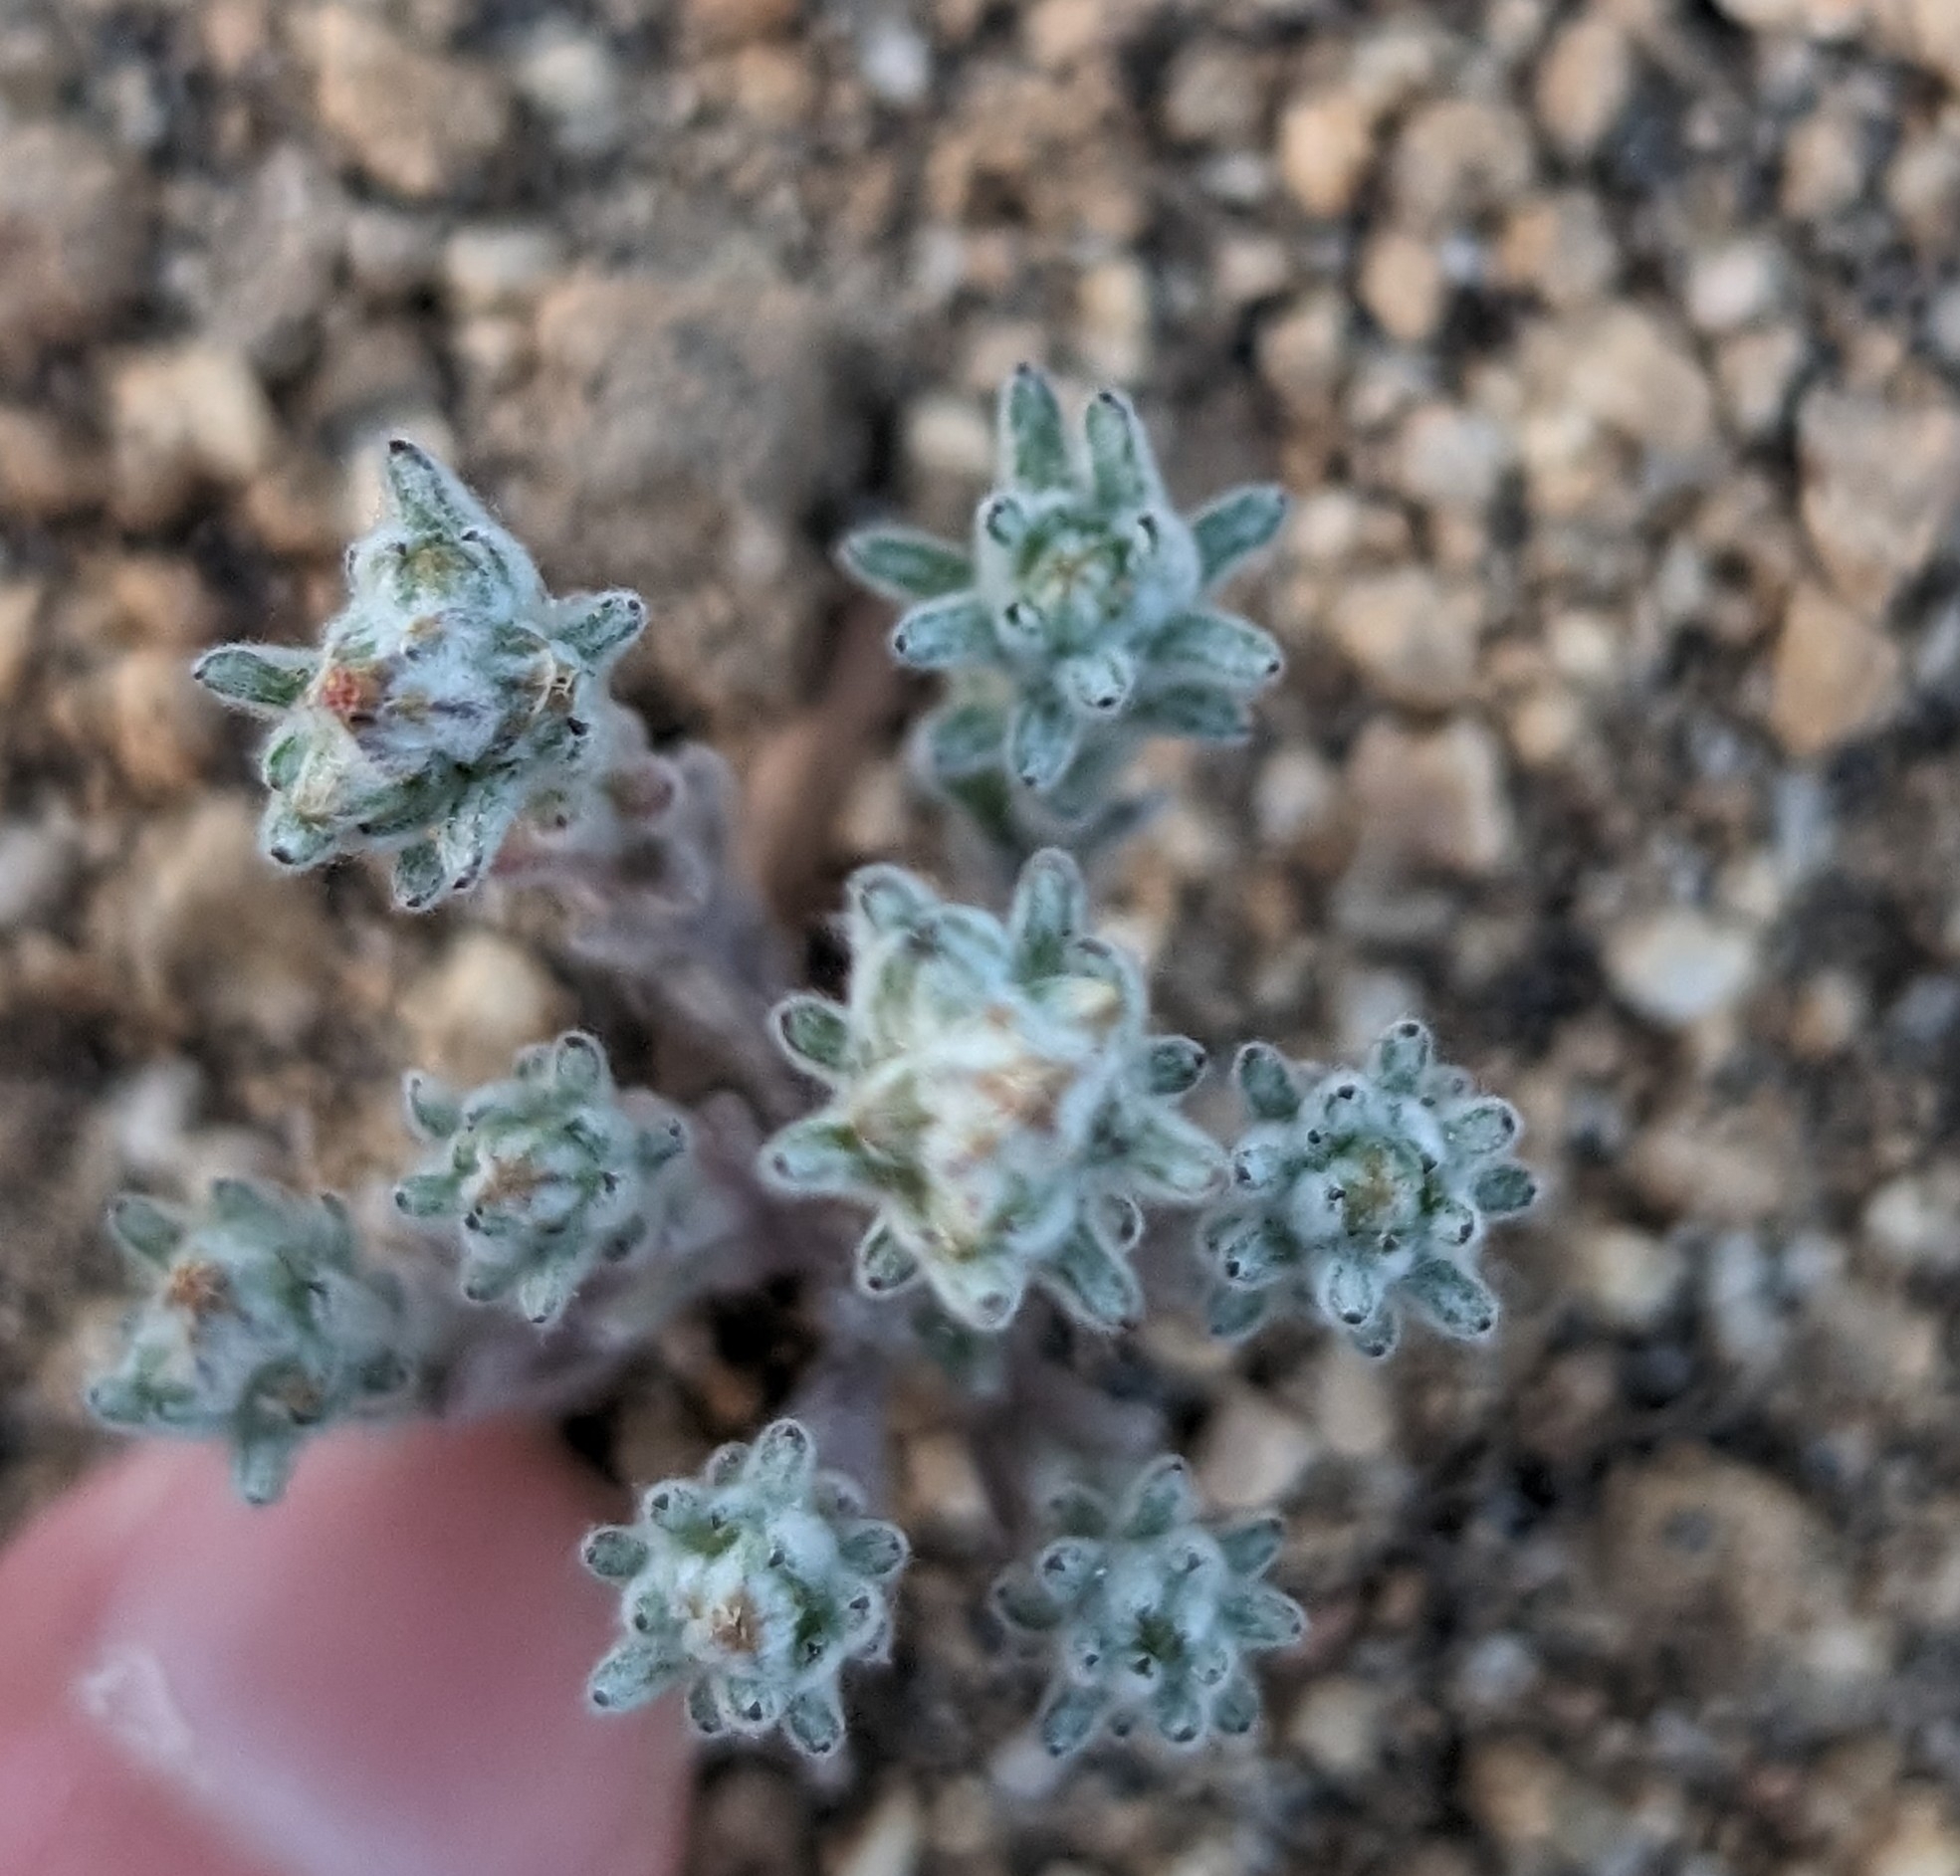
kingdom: Plantae
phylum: Tracheophyta
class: Magnoliopsida
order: Asterales
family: Asteraceae
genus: Logfia
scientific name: Logfia depressa
